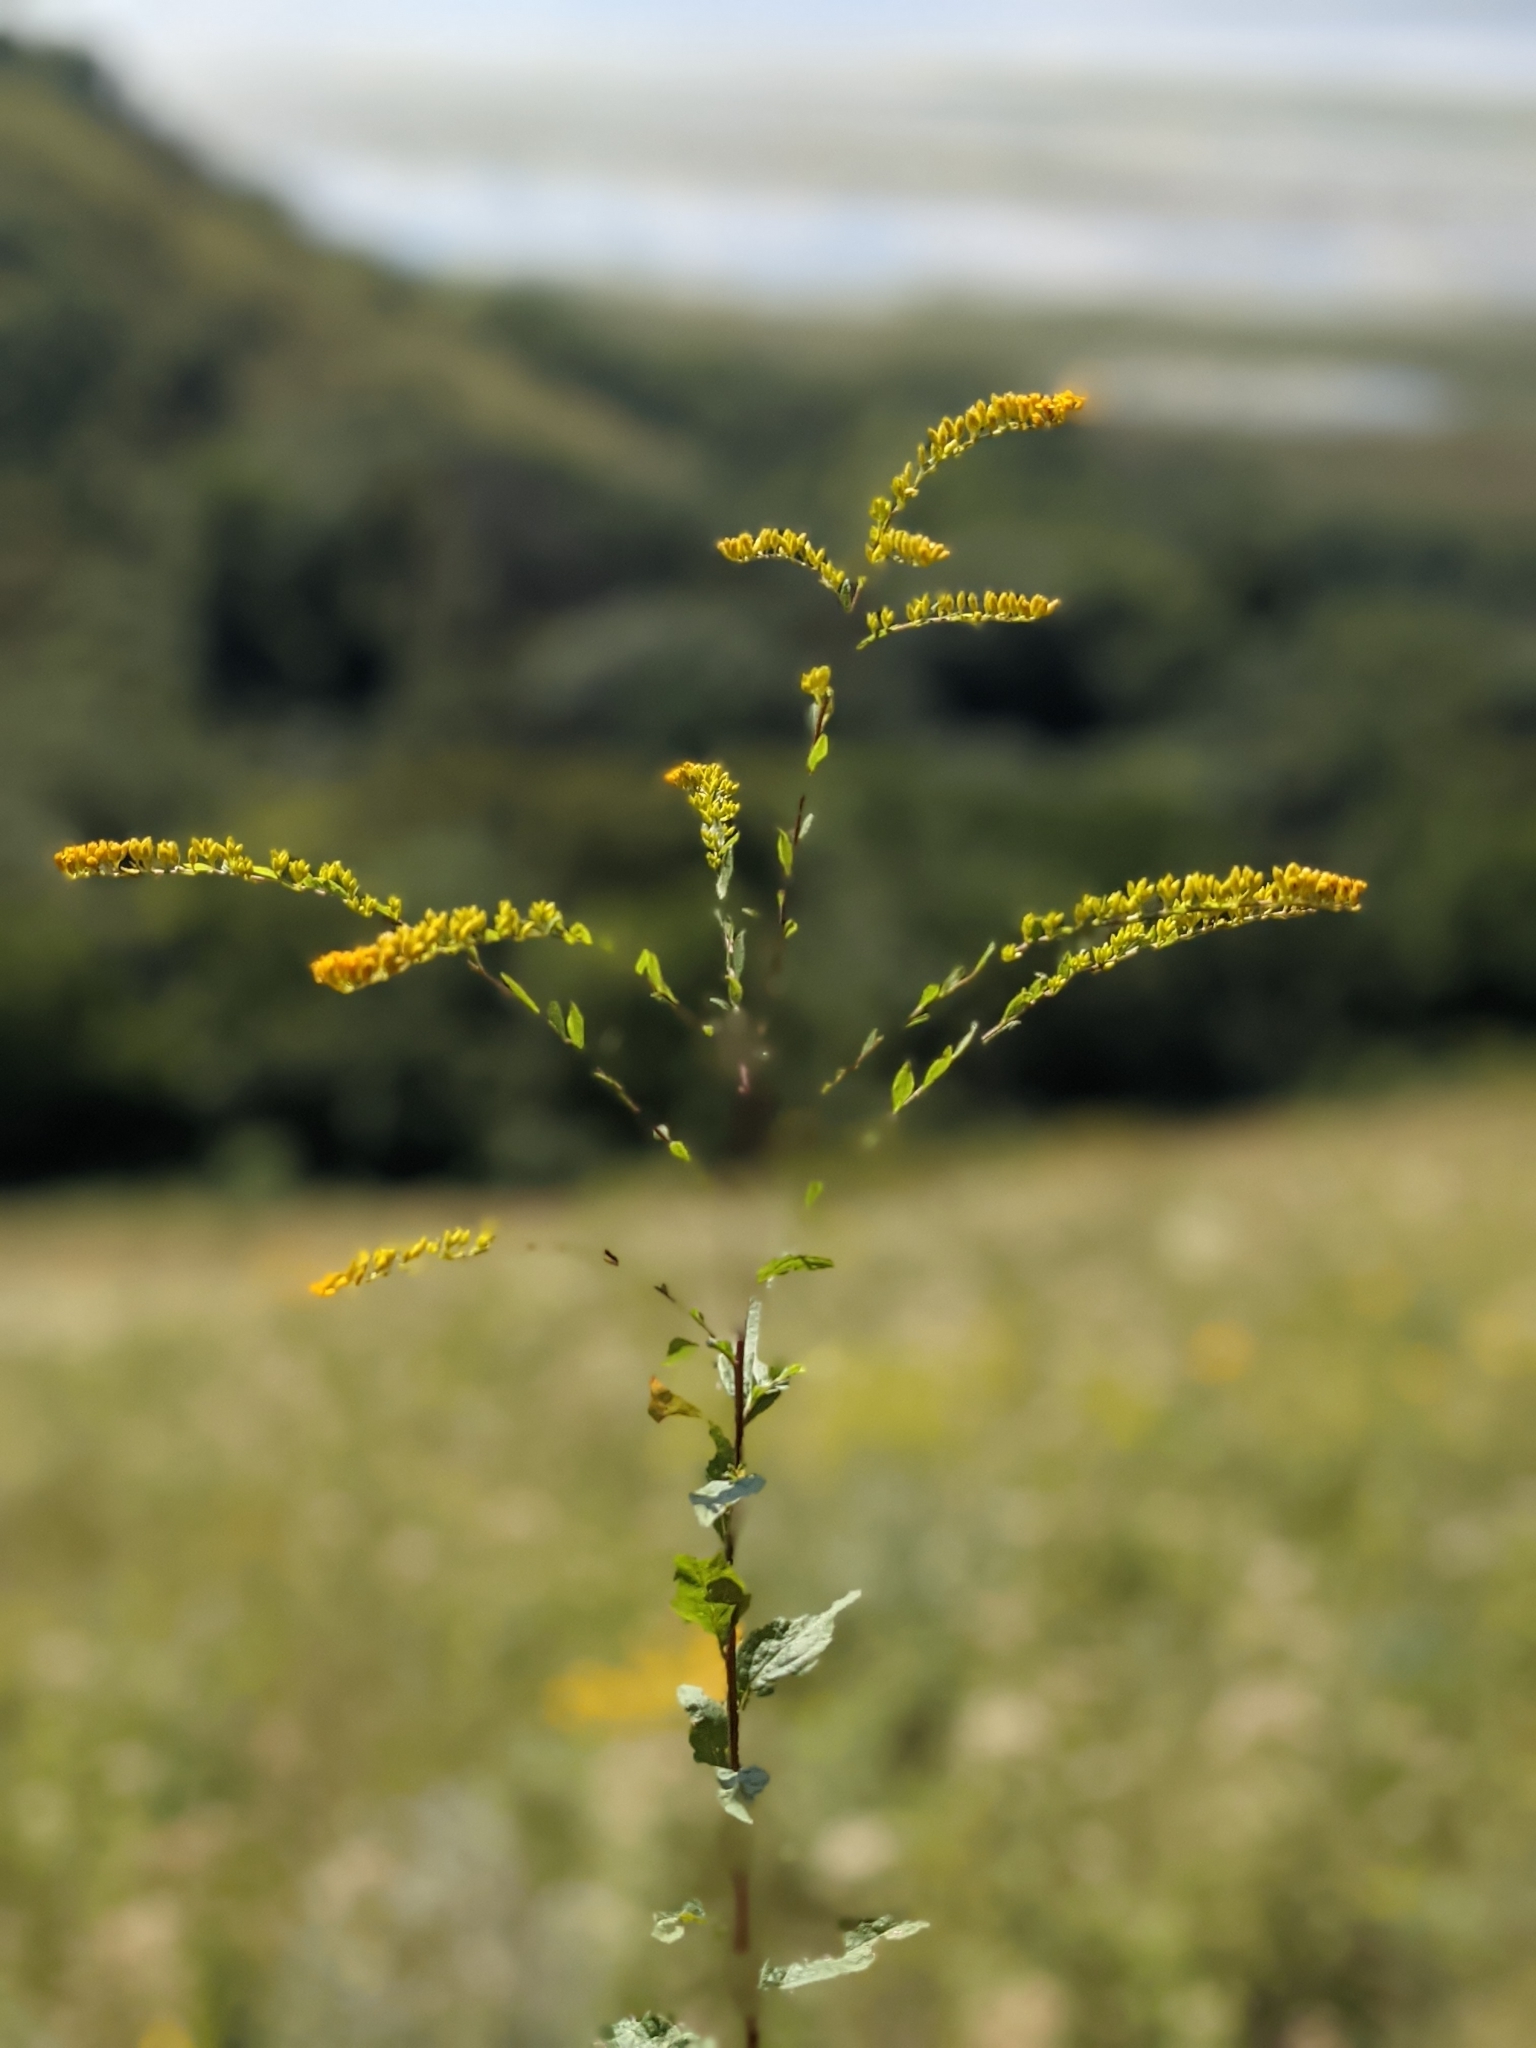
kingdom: Plantae
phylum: Tracheophyta
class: Magnoliopsida
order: Asterales
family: Asteraceae
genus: Solidago
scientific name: Solidago ulmifolia
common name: Elm-leaf goldenrod
